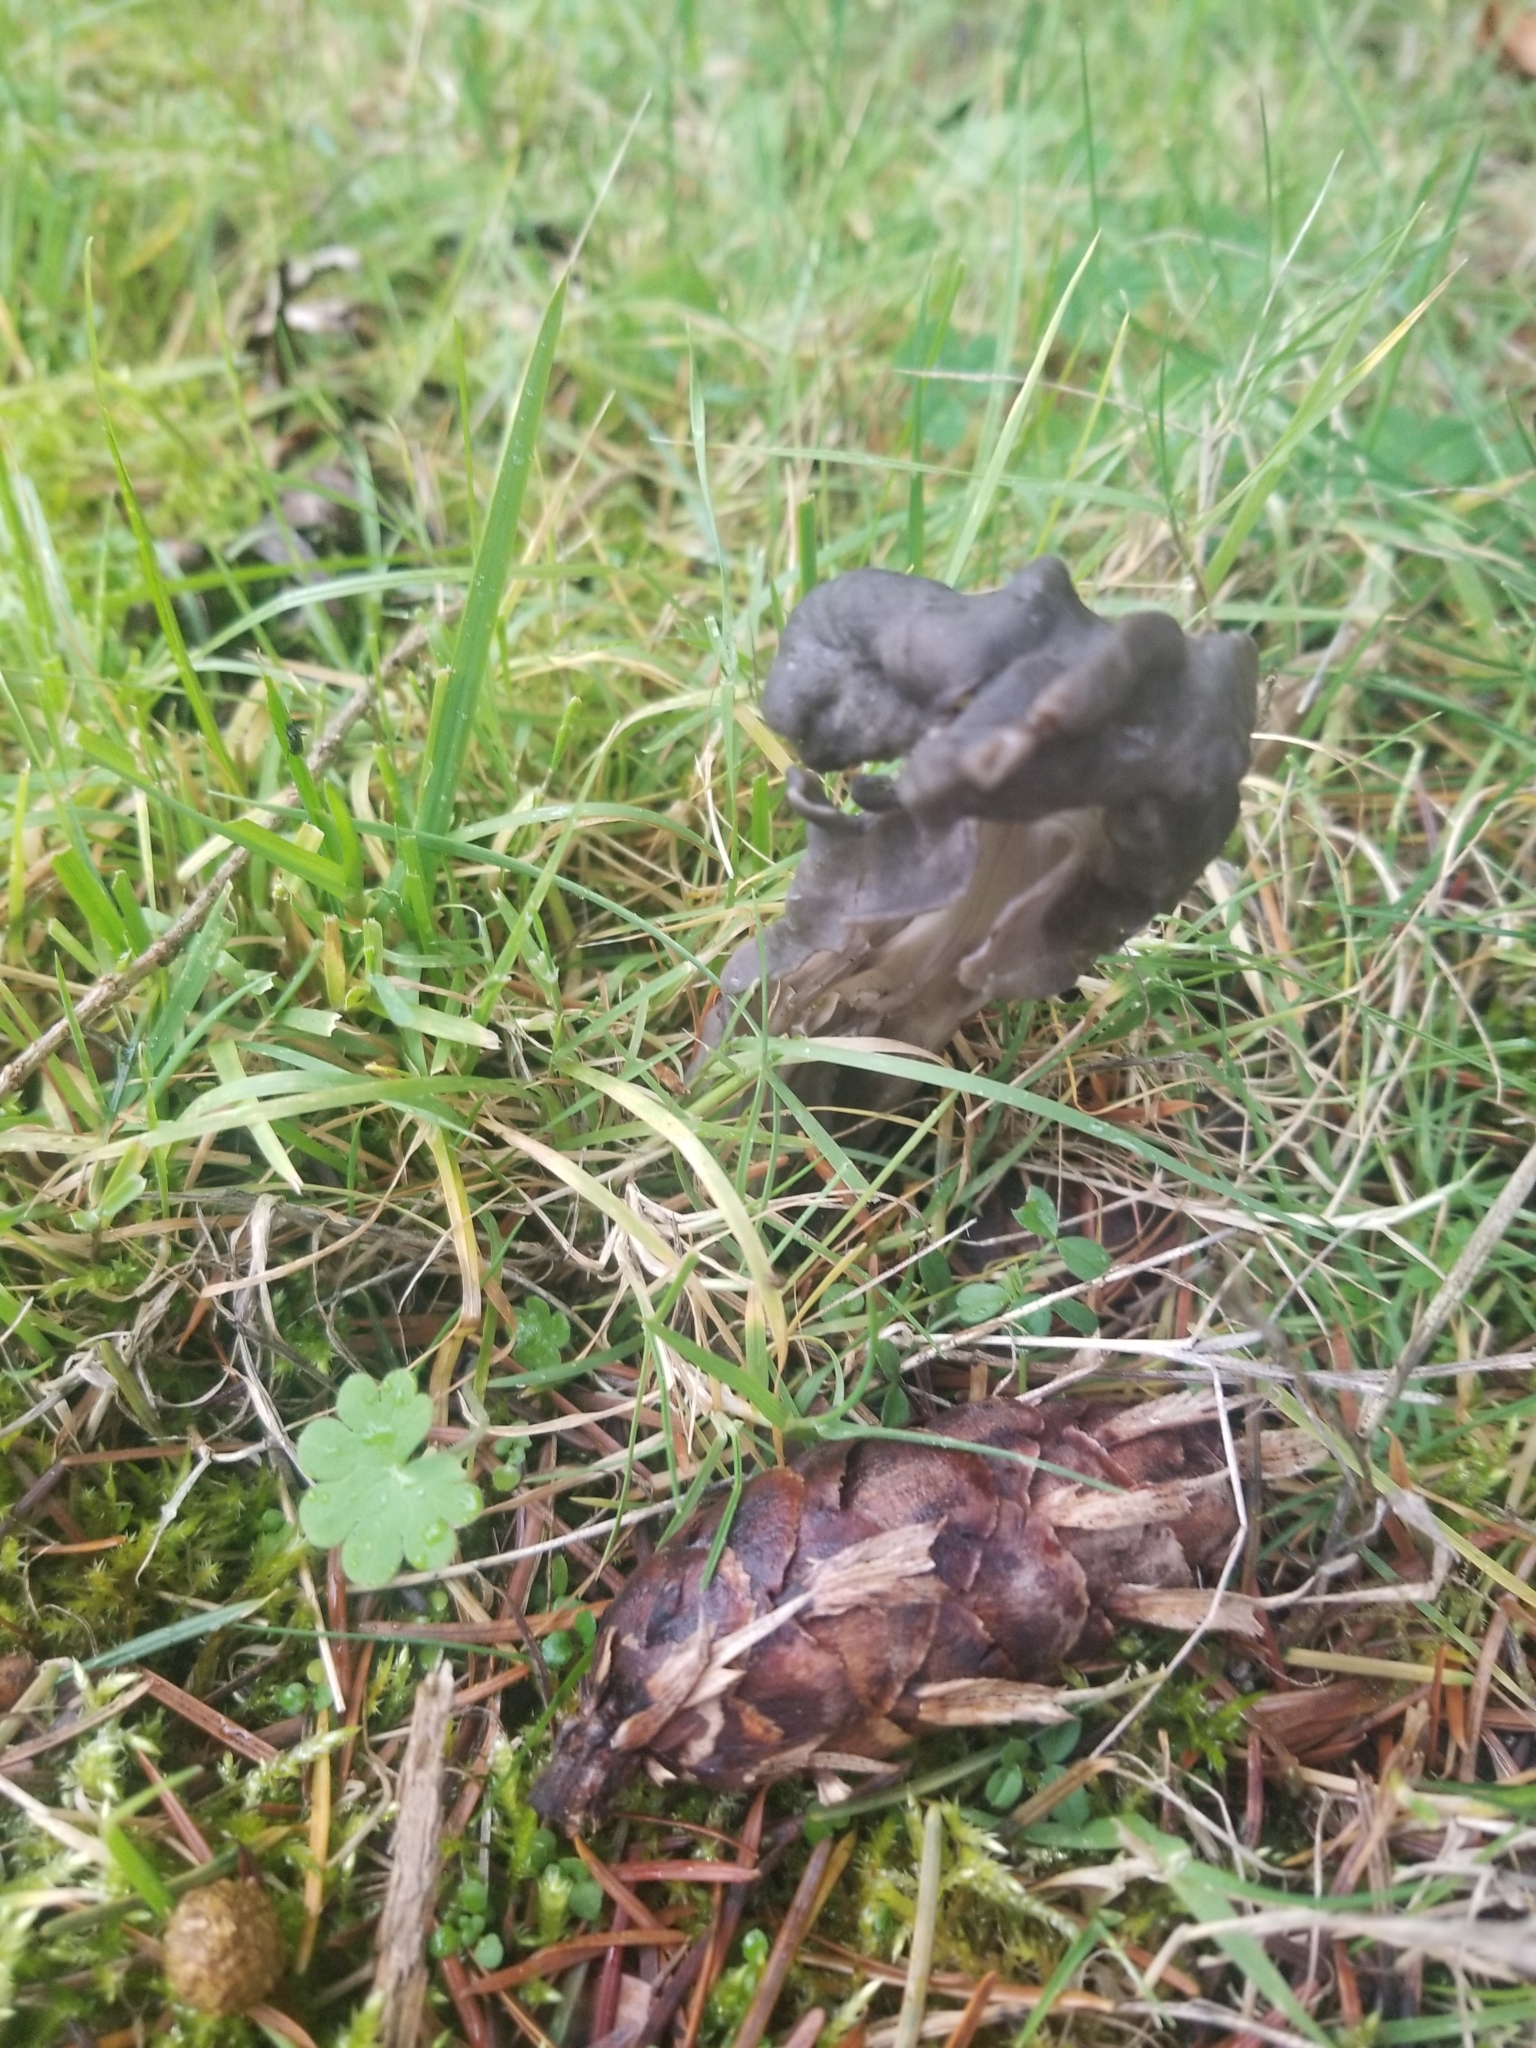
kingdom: Fungi
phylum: Ascomycota
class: Pezizomycetes
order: Pezizales
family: Helvellaceae
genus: Helvella
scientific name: Helvella vespertina
